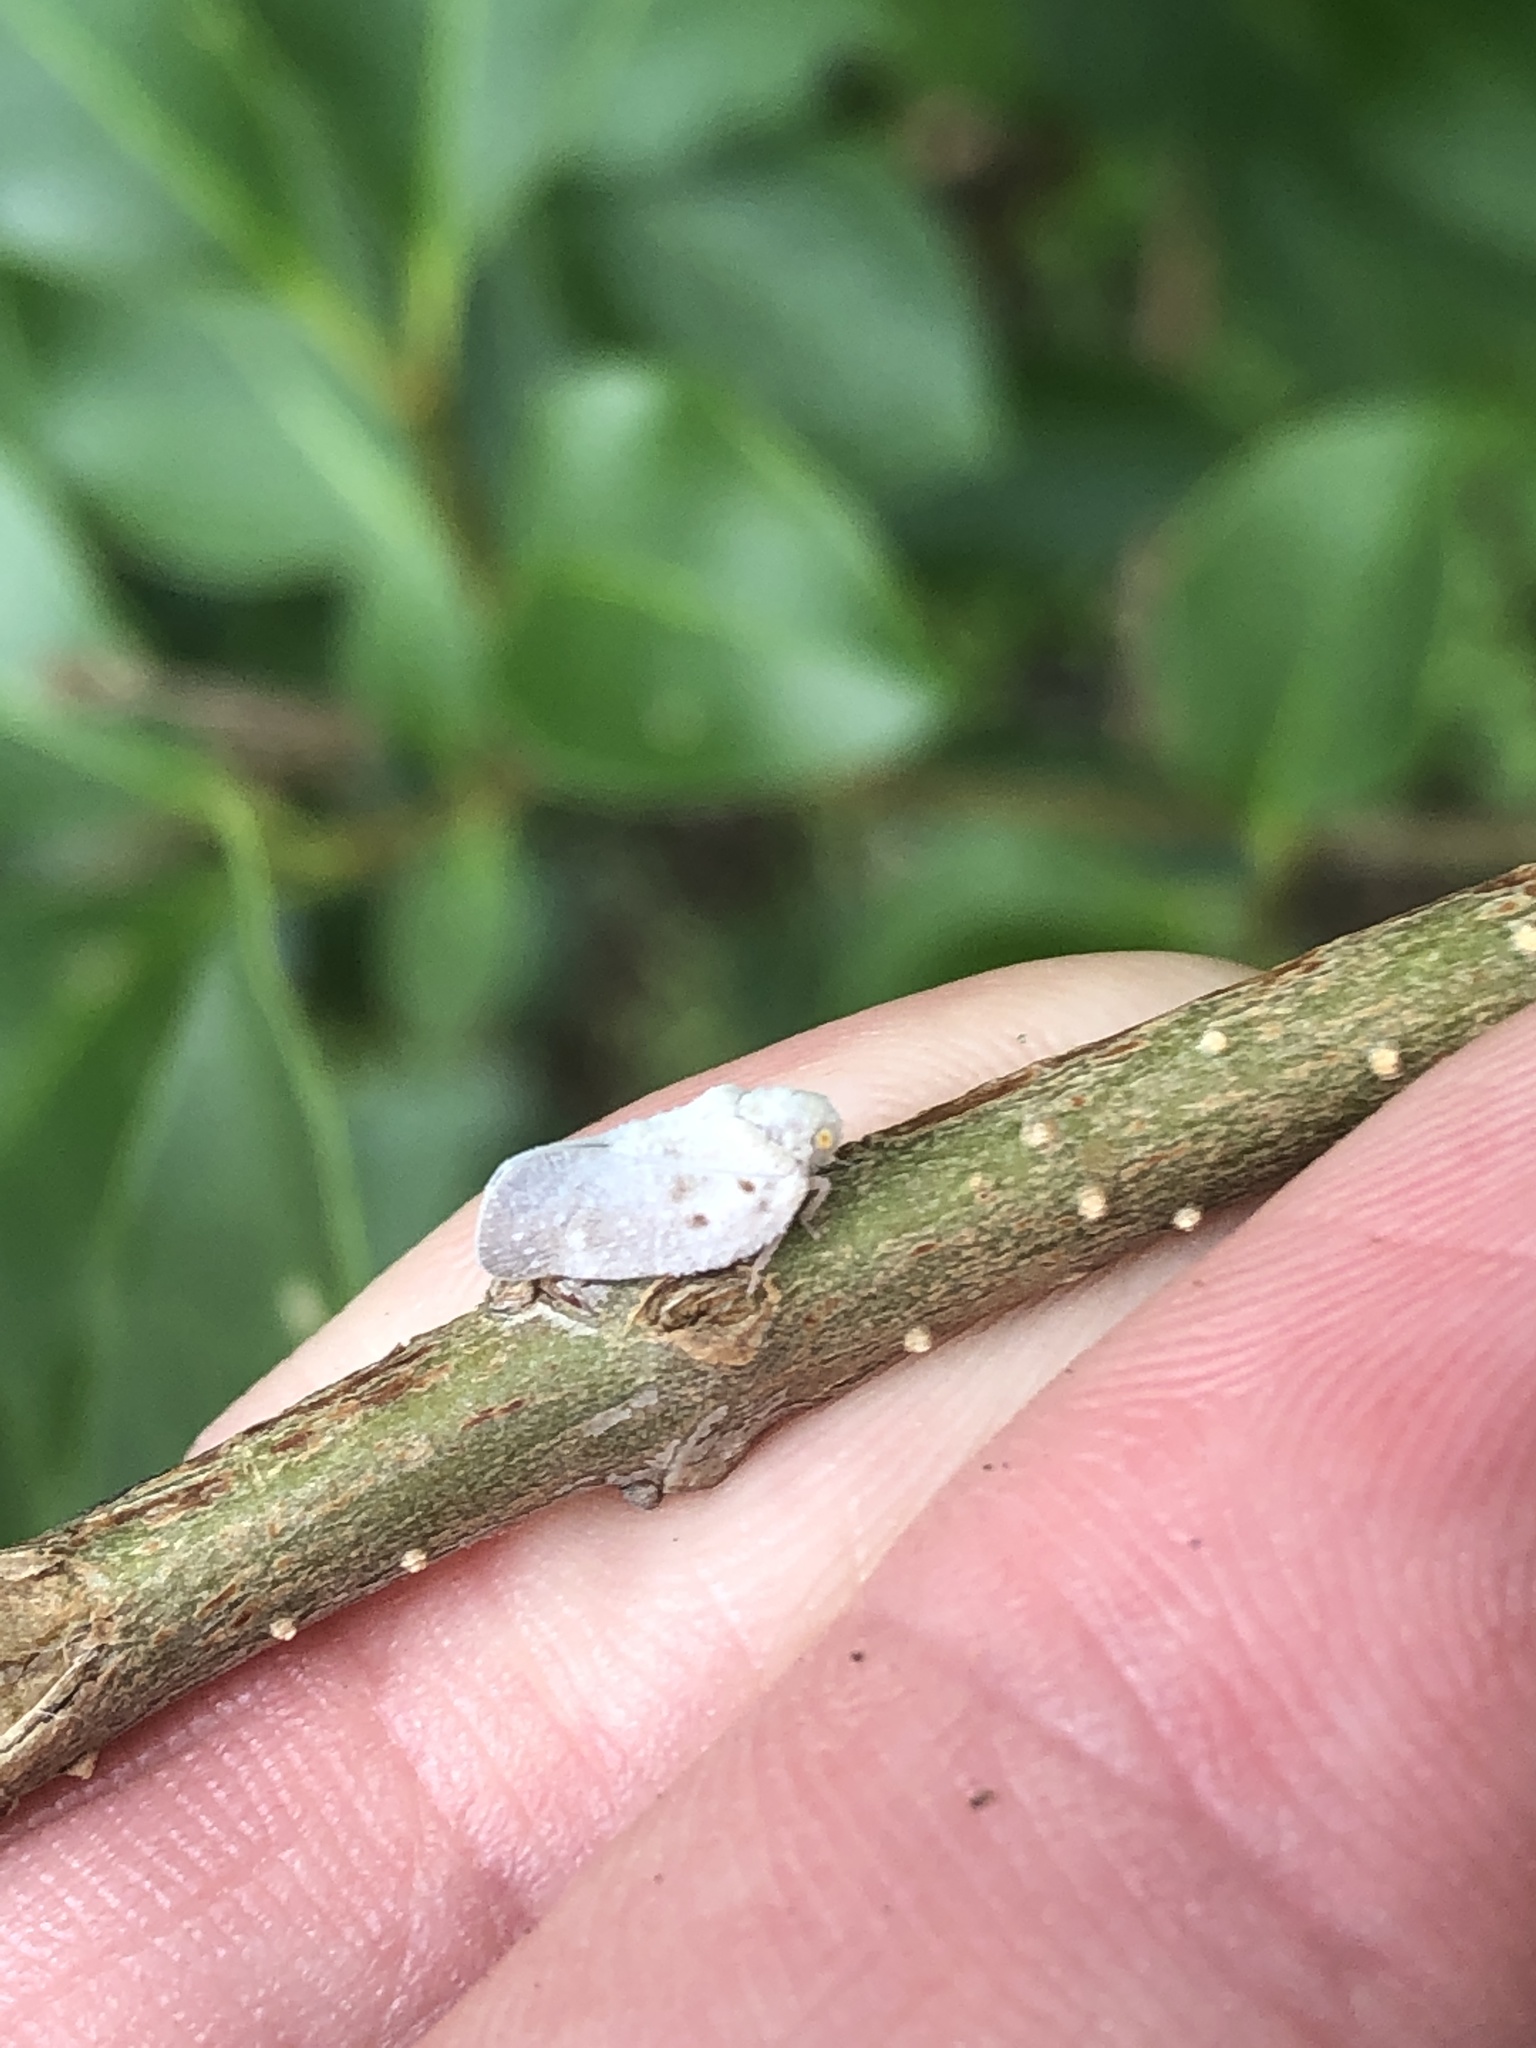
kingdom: Animalia
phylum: Arthropoda
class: Insecta
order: Hemiptera
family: Flatidae
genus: Metcalfa
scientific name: Metcalfa pruinosa
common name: Citrus flatid planthopper
